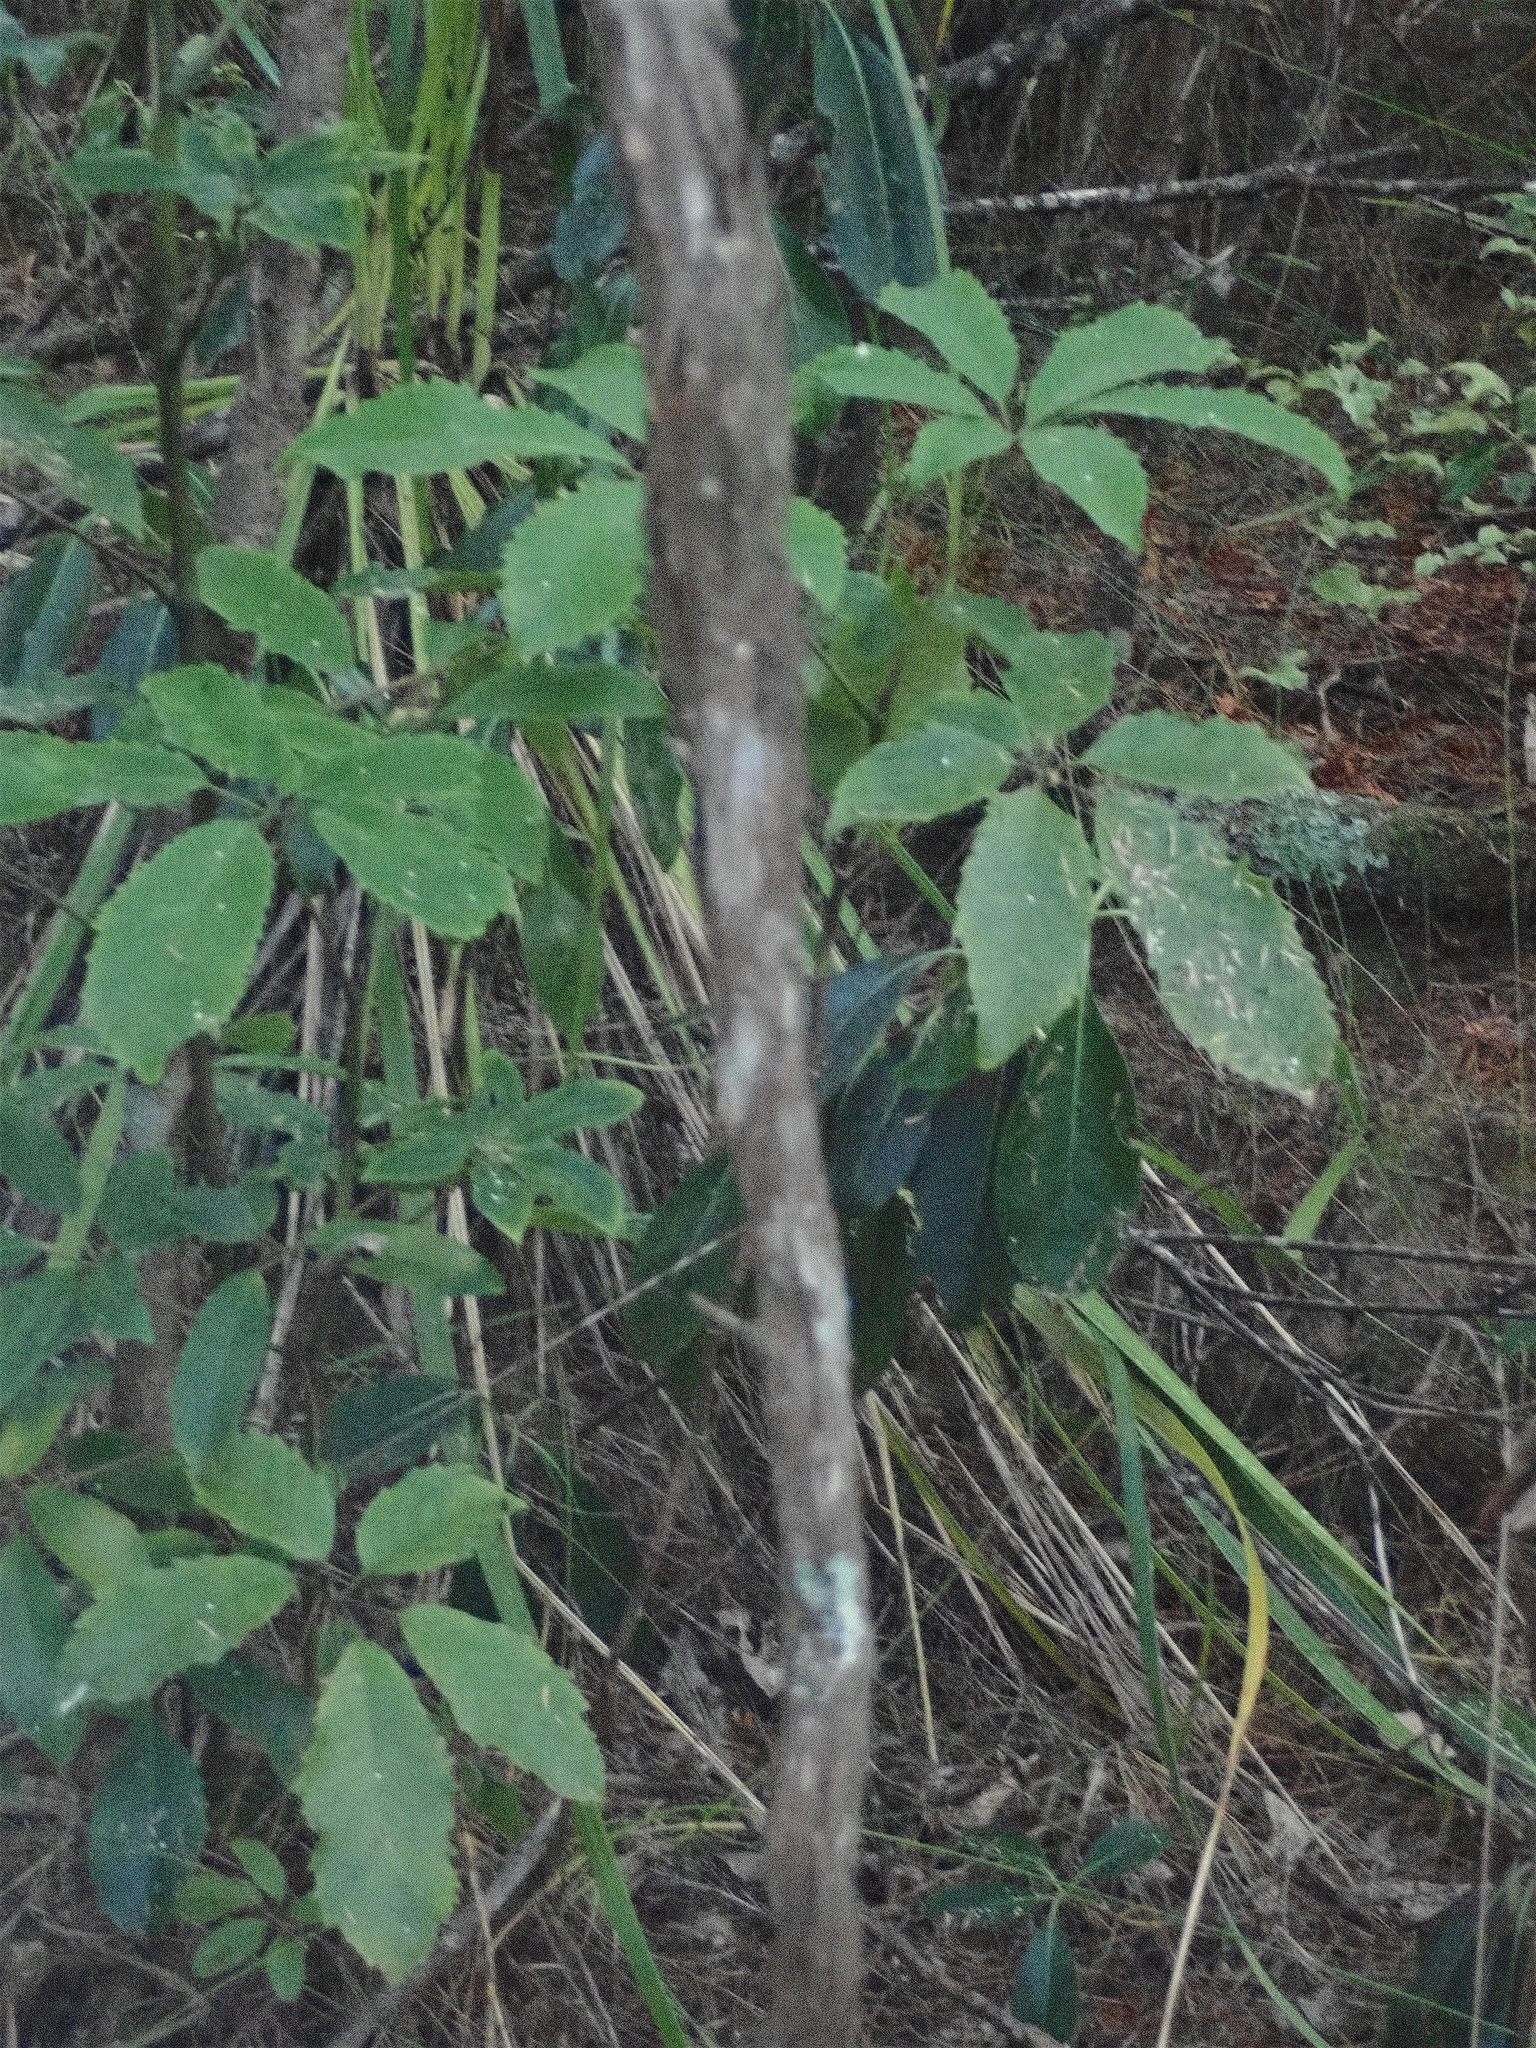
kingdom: Plantae
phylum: Tracheophyta
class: Magnoliopsida
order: Apiales
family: Araliaceae
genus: Neopanax
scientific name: Neopanax arboreus
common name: Five-fingers
